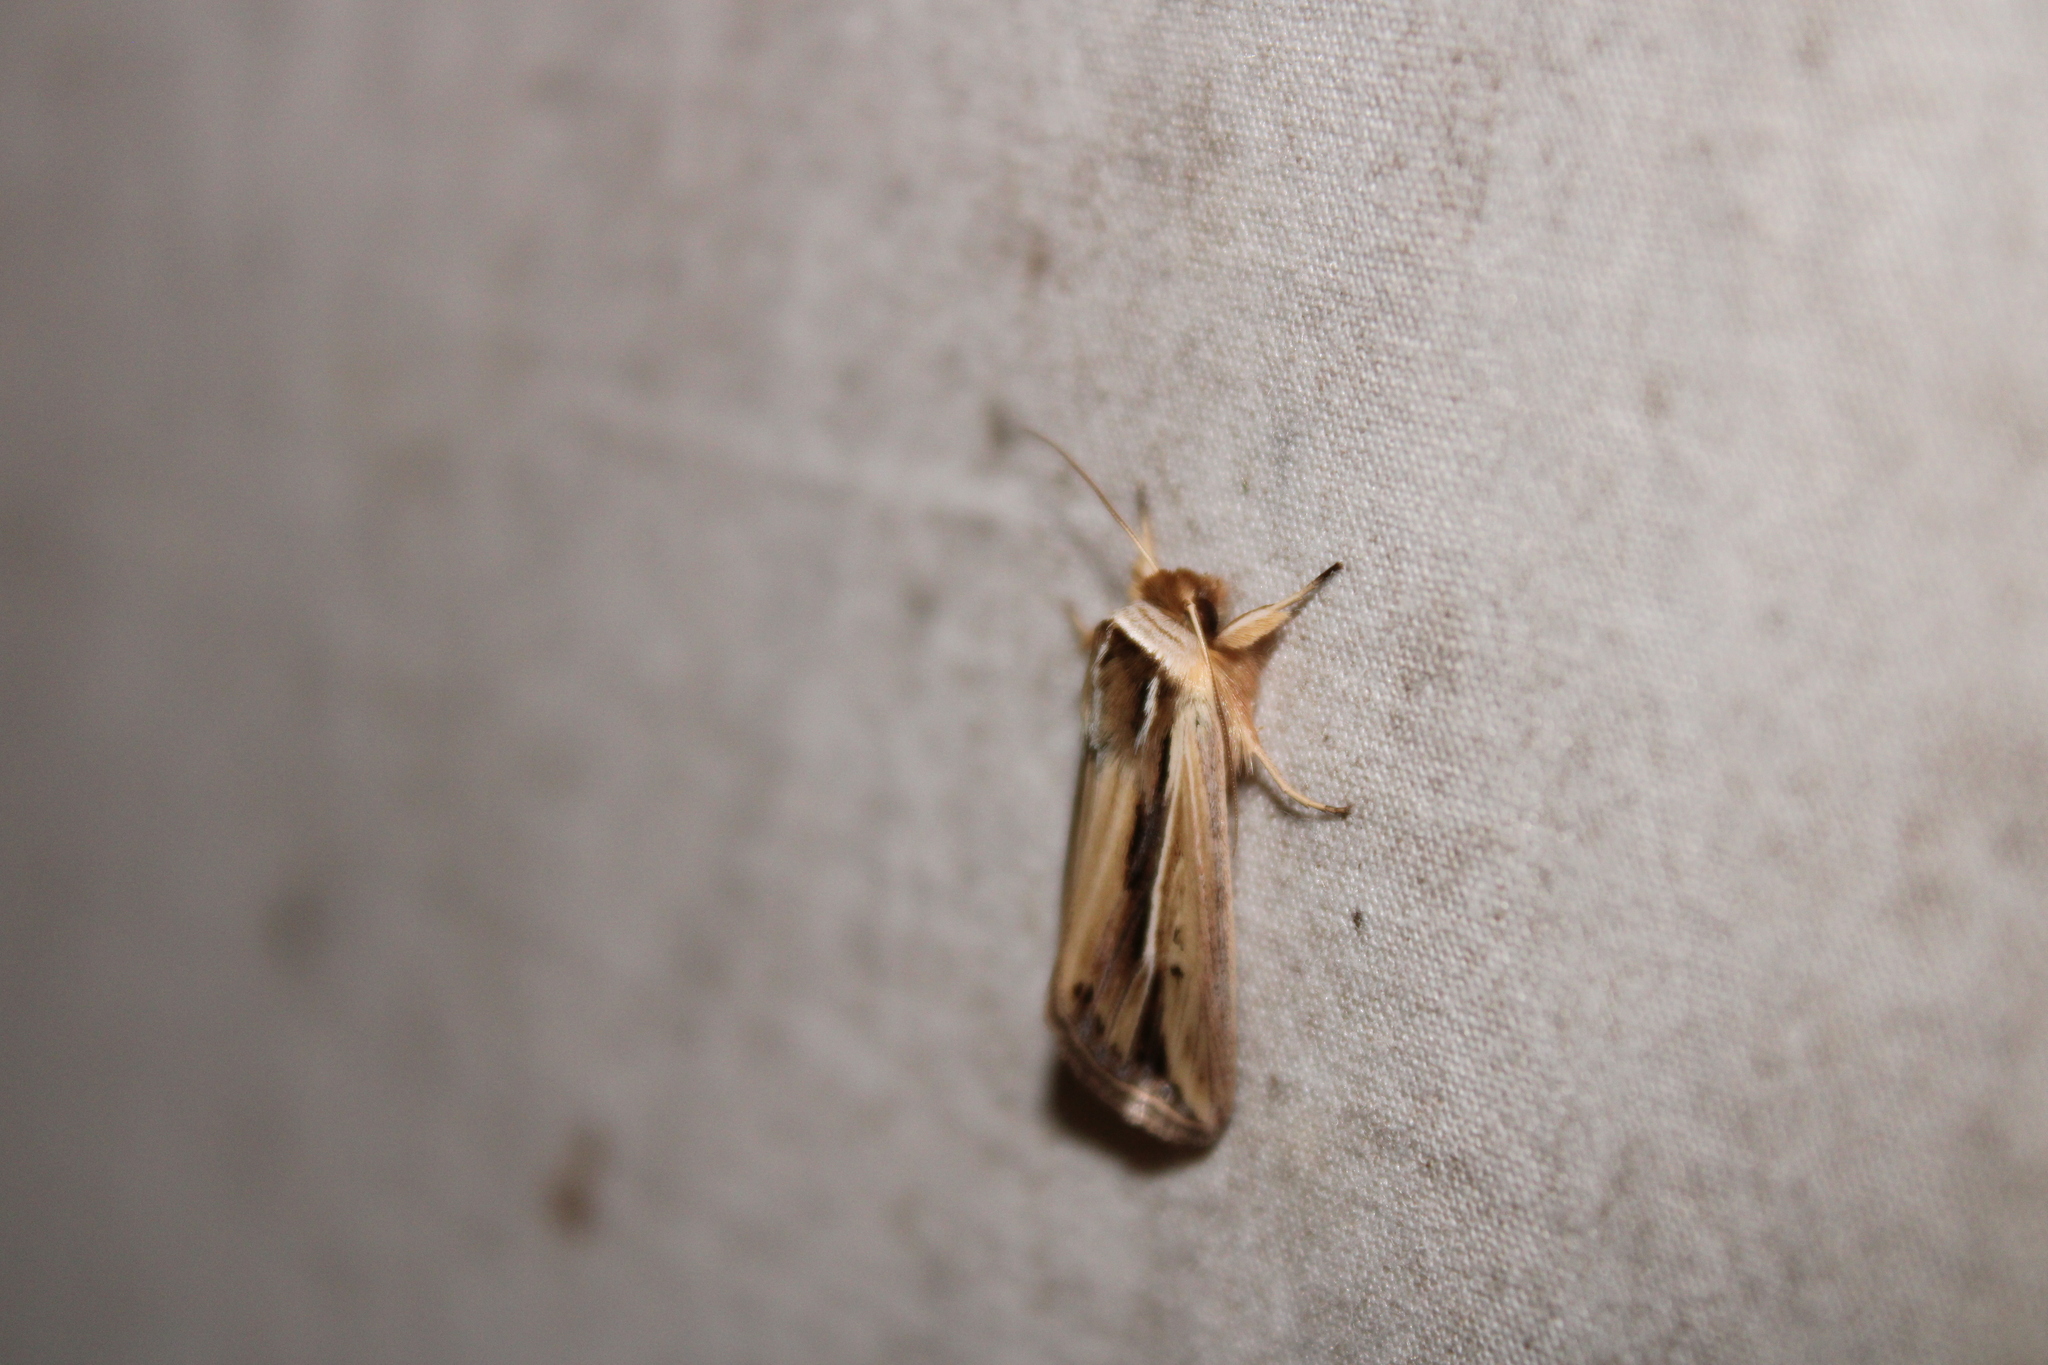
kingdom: Animalia
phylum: Arthropoda
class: Insecta
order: Lepidoptera
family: Noctuidae
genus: Dargida
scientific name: Dargida diffusa
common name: Wheat head armyworm
